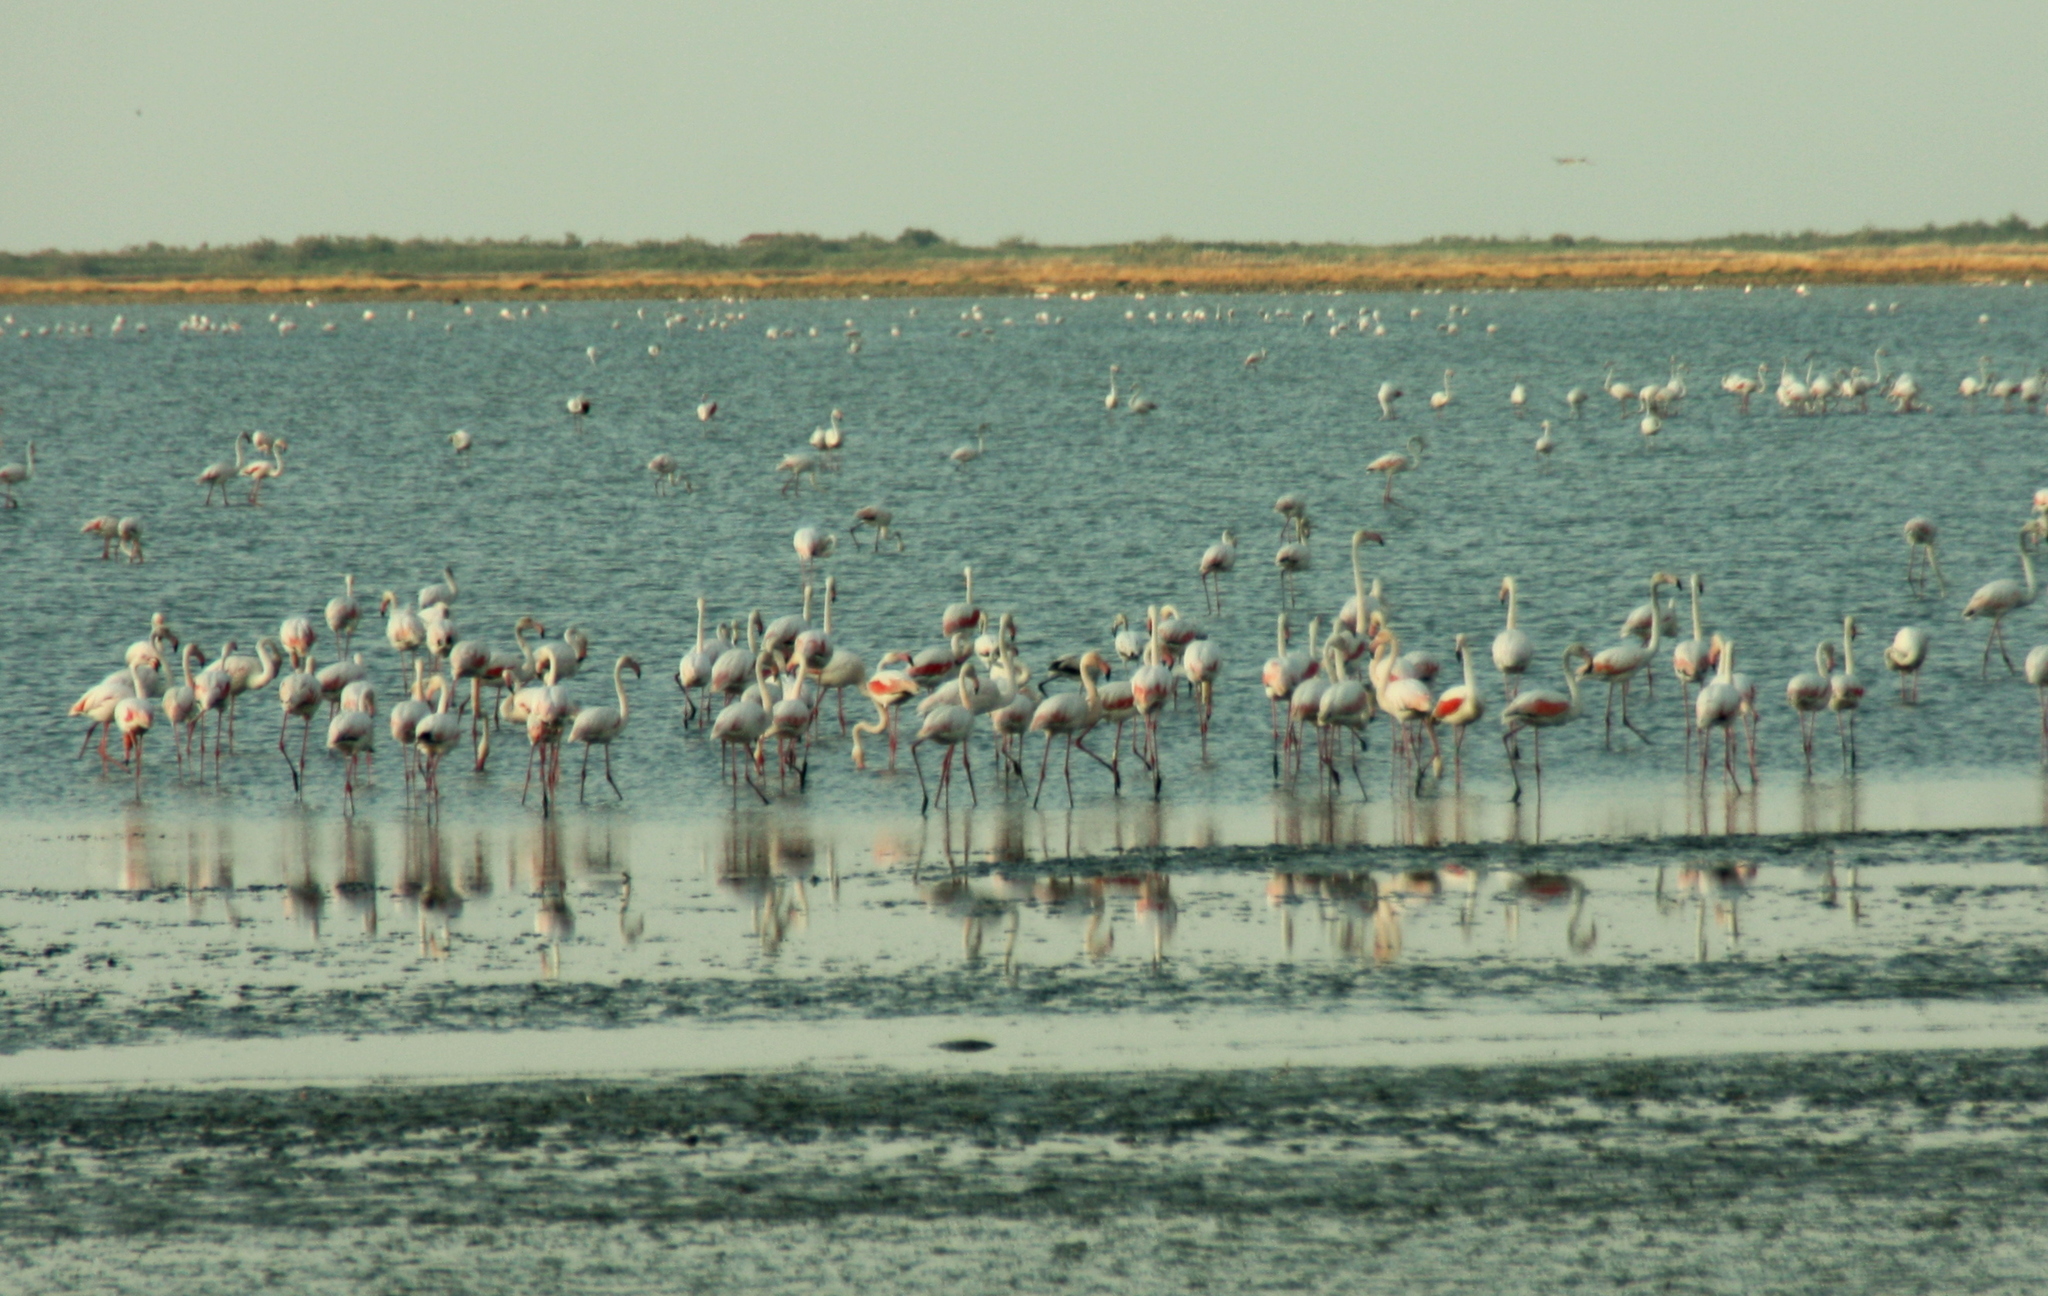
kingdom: Animalia
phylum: Chordata
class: Aves
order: Phoenicopteriformes
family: Phoenicopteridae
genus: Phoenicopterus
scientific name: Phoenicopterus roseus
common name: Greater flamingo
